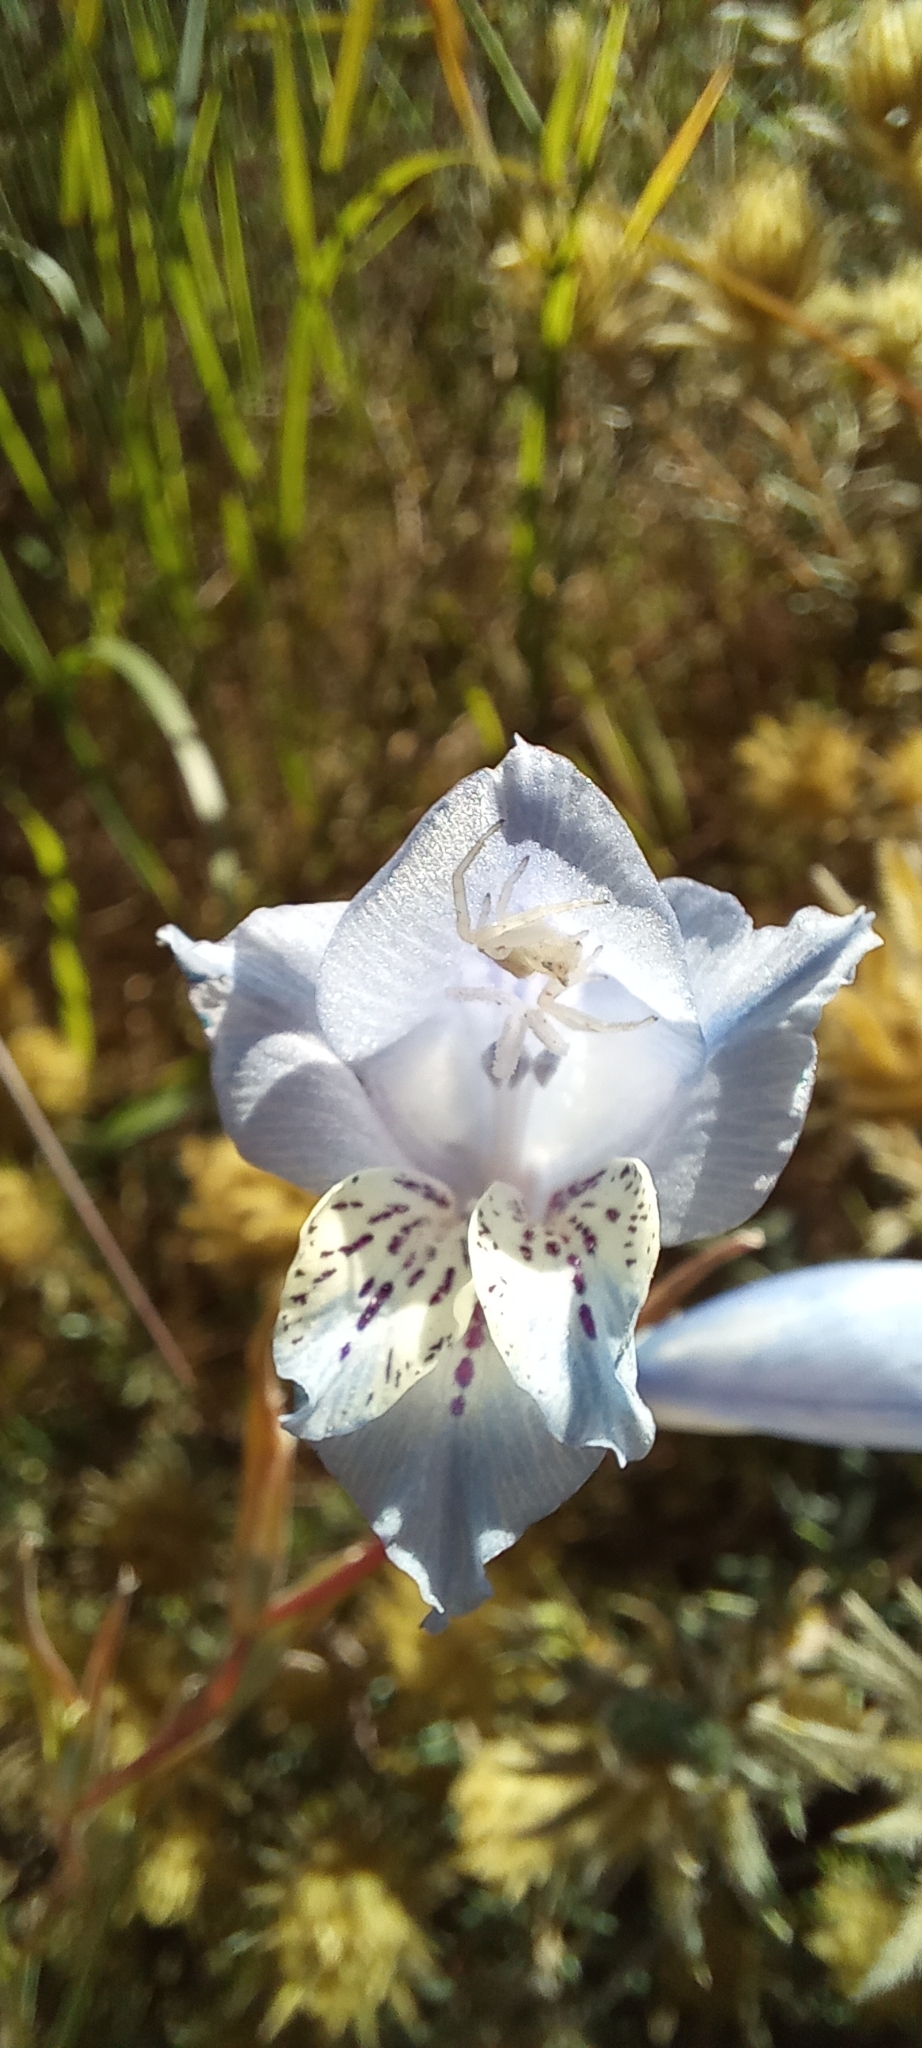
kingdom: Plantae
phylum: Tracheophyta
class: Liliopsida
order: Asparagales
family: Iridaceae
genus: Gladiolus
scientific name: Gladiolus gracilis
